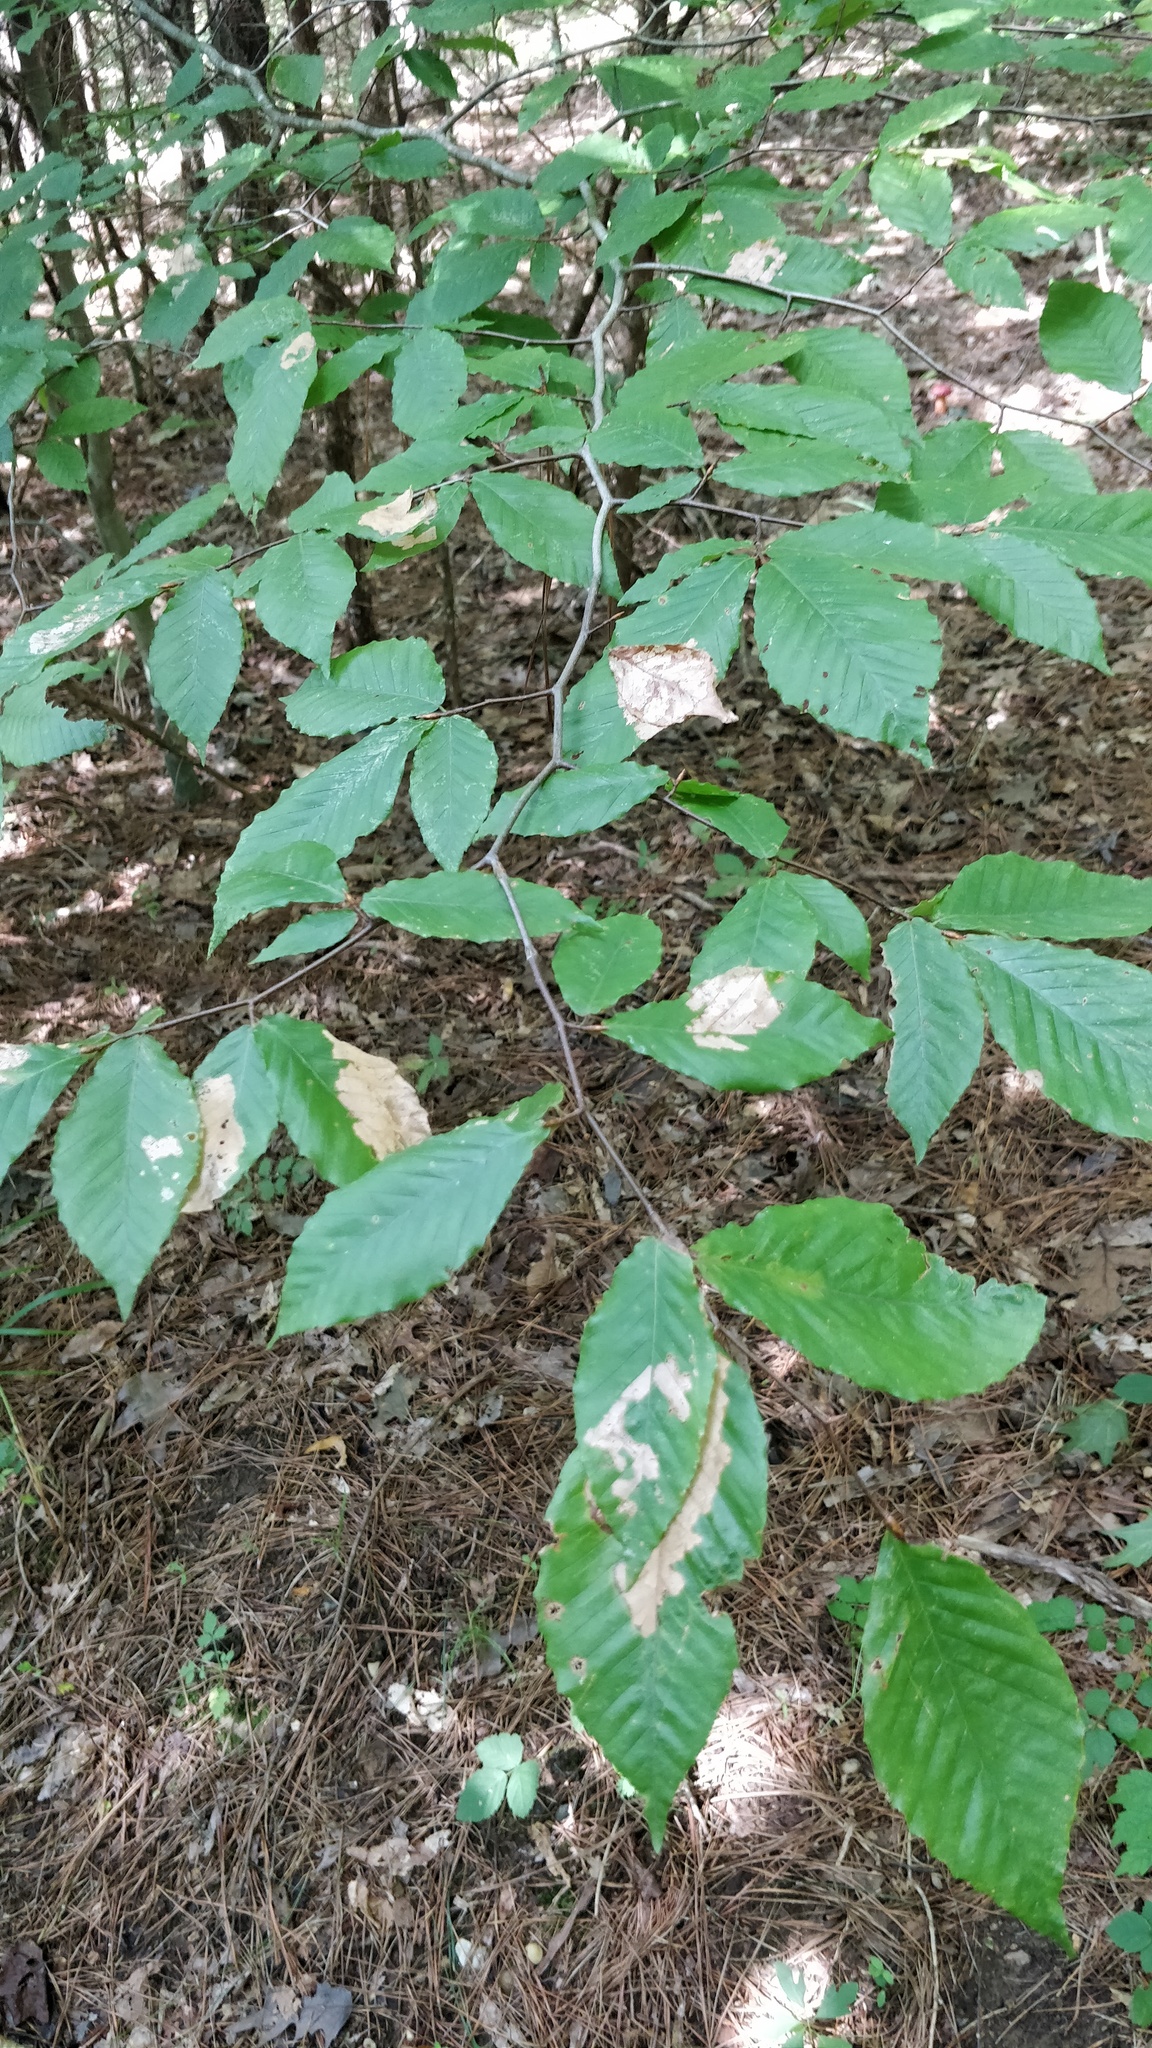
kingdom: Plantae
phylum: Tracheophyta
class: Magnoliopsida
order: Fagales
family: Fagaceae
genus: Fagus
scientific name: Fagus grandifolia
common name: American beech
